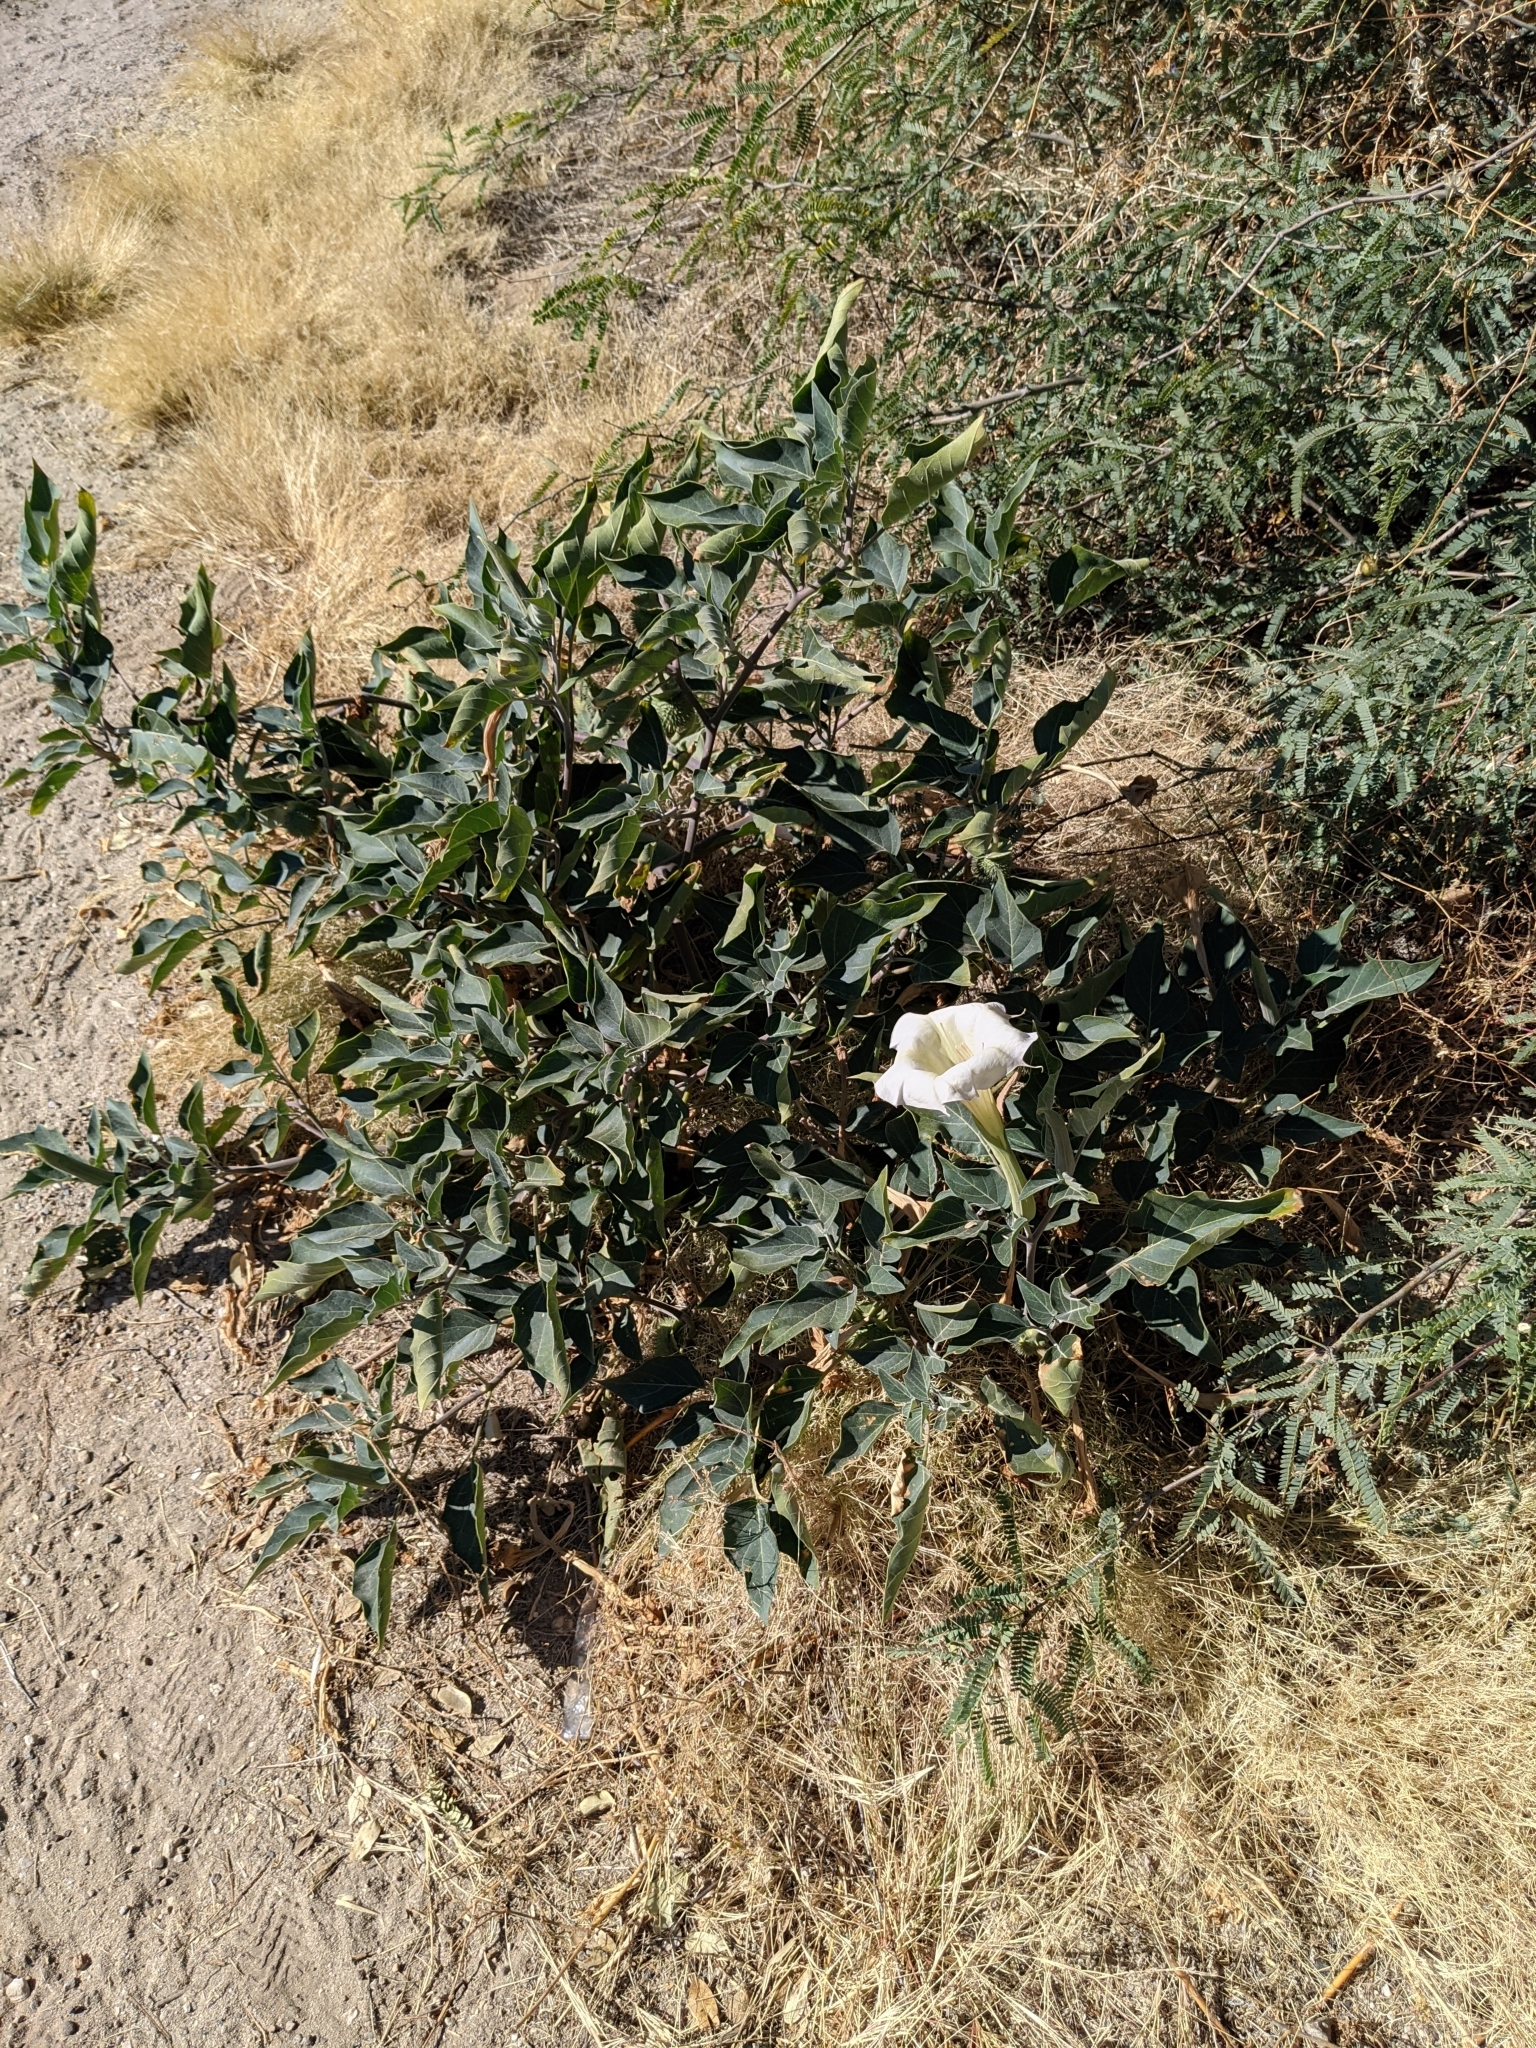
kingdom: Plantae
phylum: Tracheophyta
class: Magnoliopsida
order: Solanales
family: Solanaceae
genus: Datura
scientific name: Datura wrightii
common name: Sacred thorn-apple
